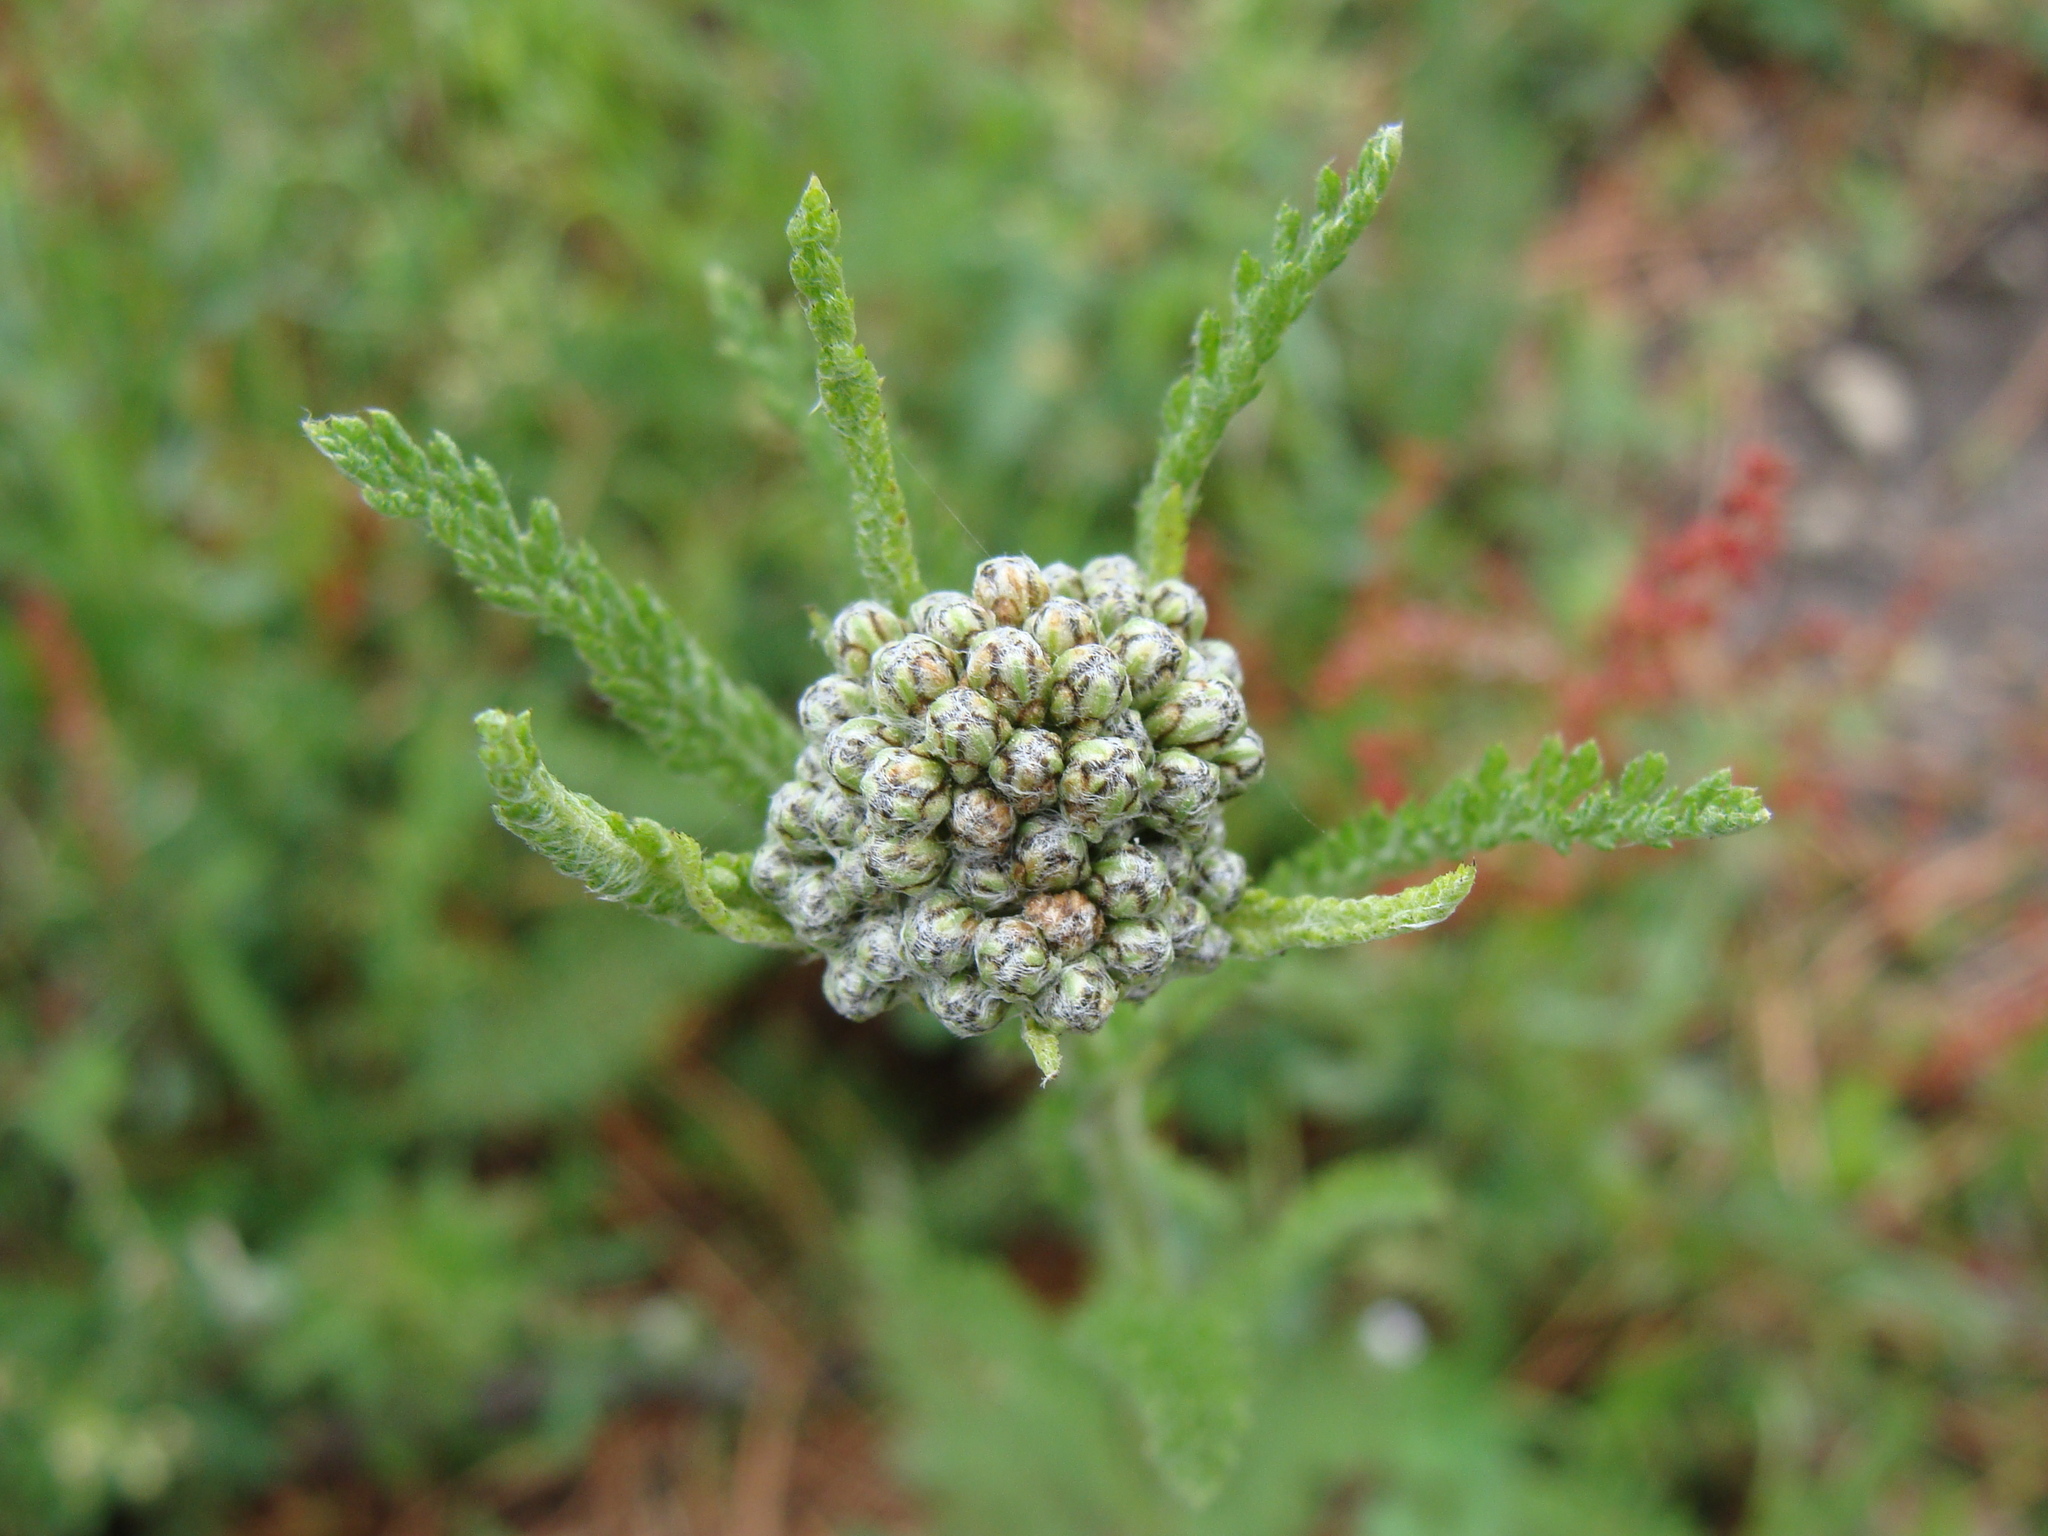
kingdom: Plantae
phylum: Tracheophyta
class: Magnoliopsida
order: Asterales
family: Asteraceae
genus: Achillea
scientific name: Achillea millefolium
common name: Yarrow
